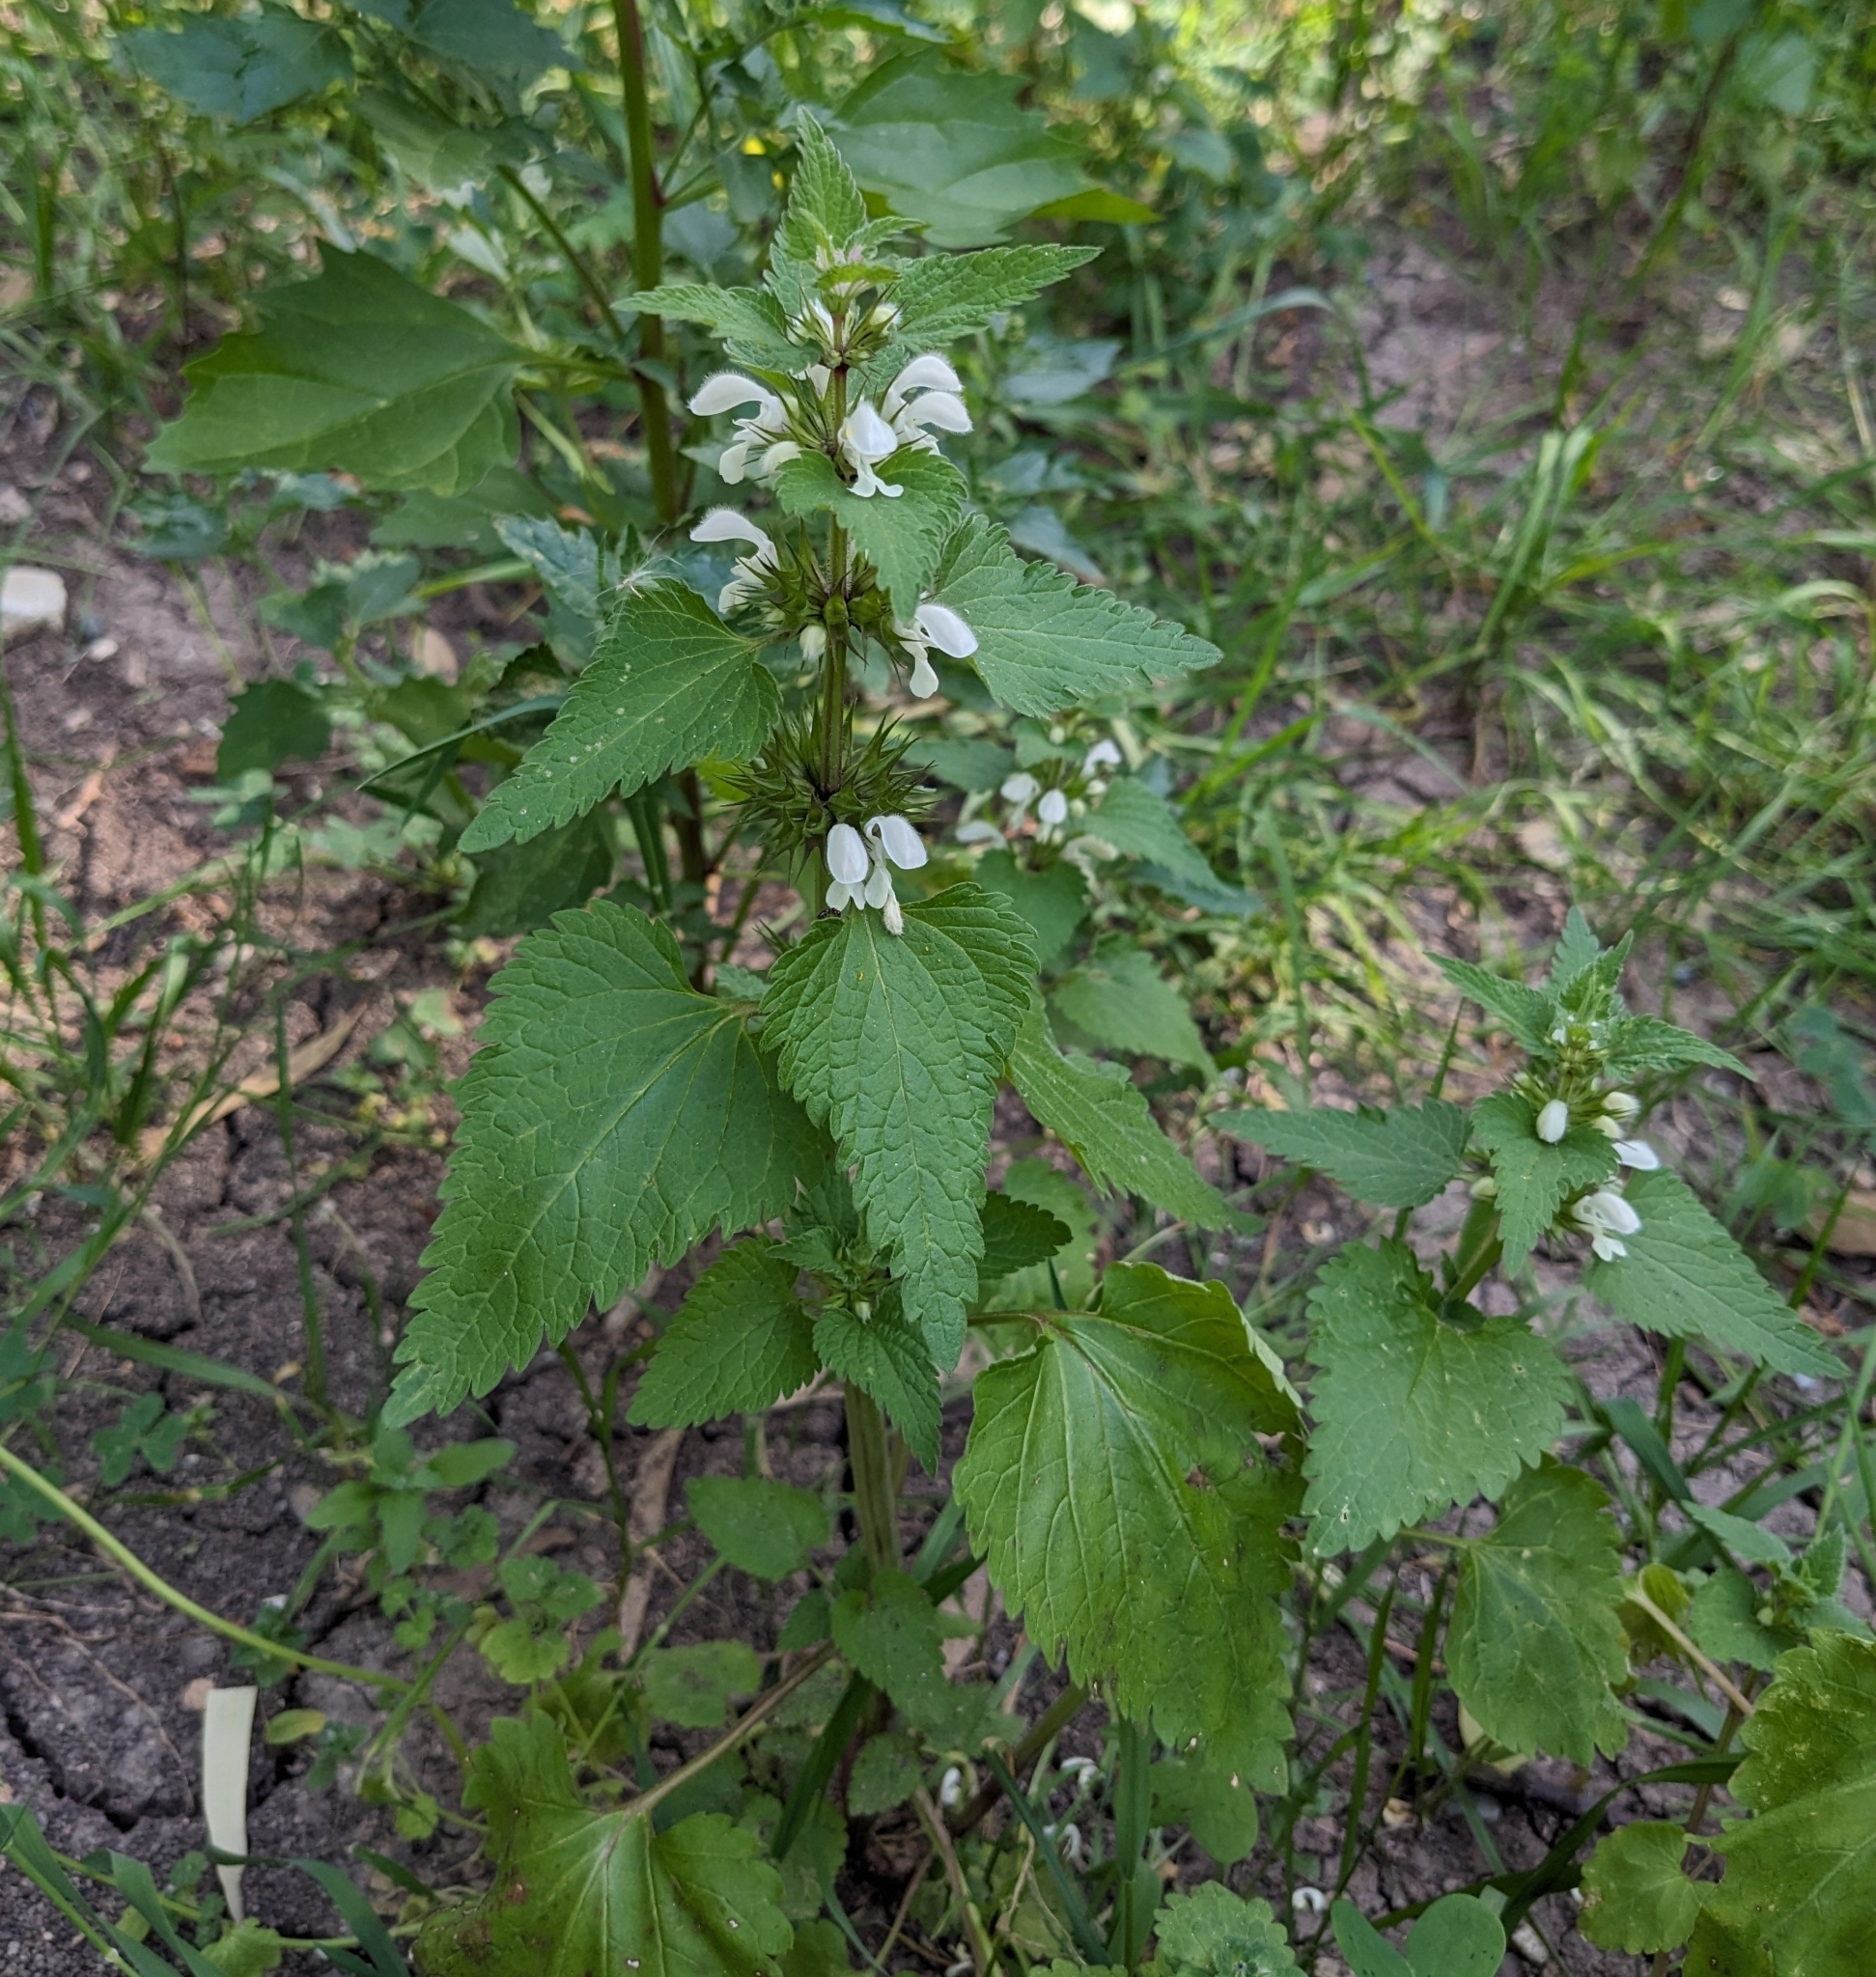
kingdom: Plantae
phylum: Tracheophyta
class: Magnoliopsida
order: Lamiales
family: Lamiaceae
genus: Lamium
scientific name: Lamium moschatum
